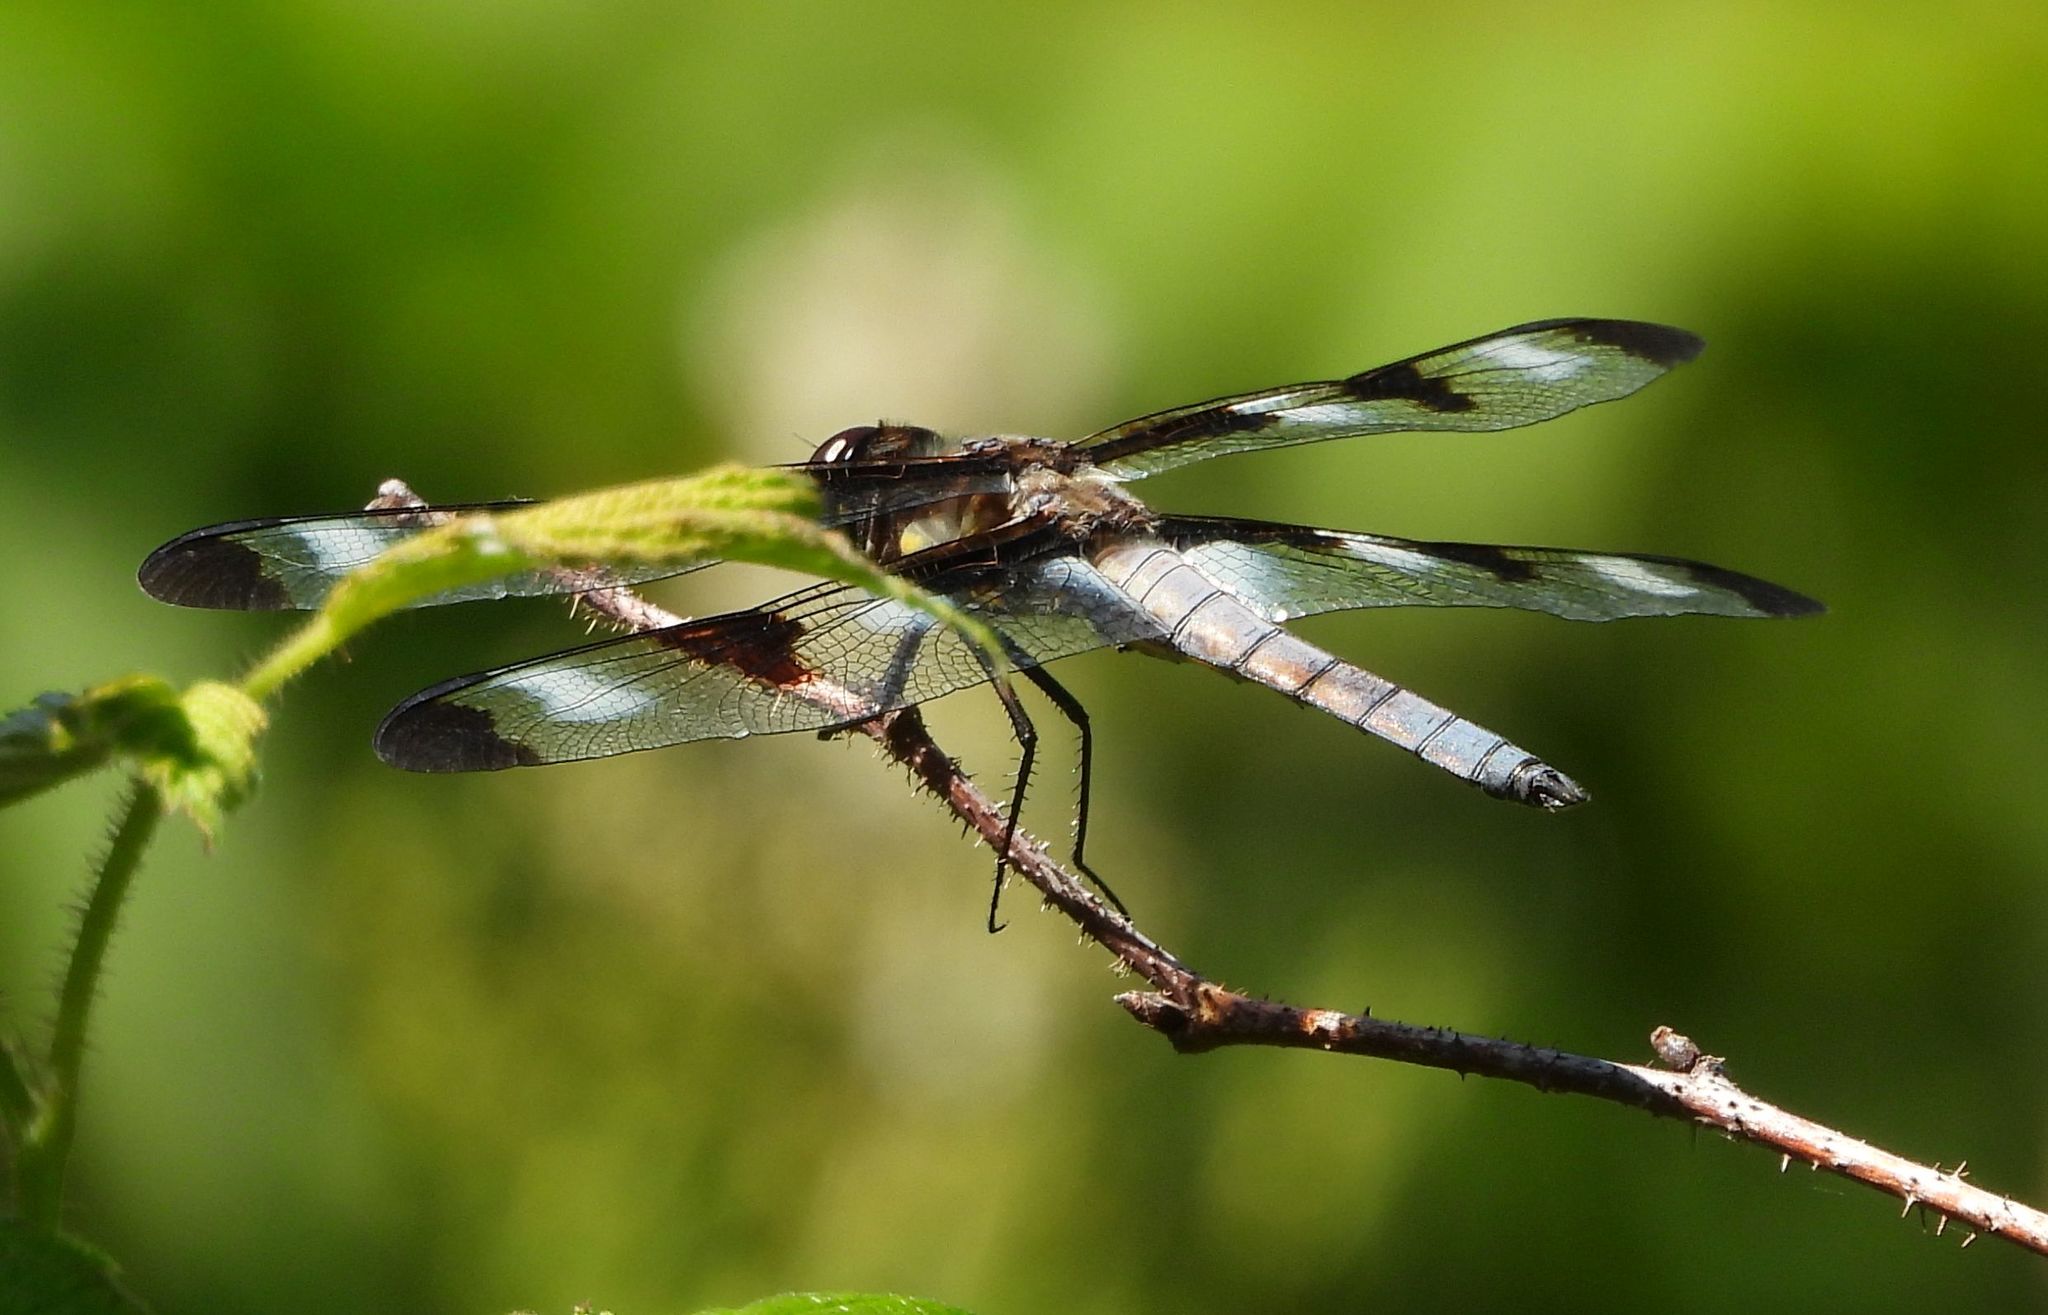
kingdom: Animalia
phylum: Arthropoda
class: Insecta
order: Odonata
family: Libellulidae
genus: Libellula
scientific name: Libellula pulchella
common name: Twelve-spotted skimmer
